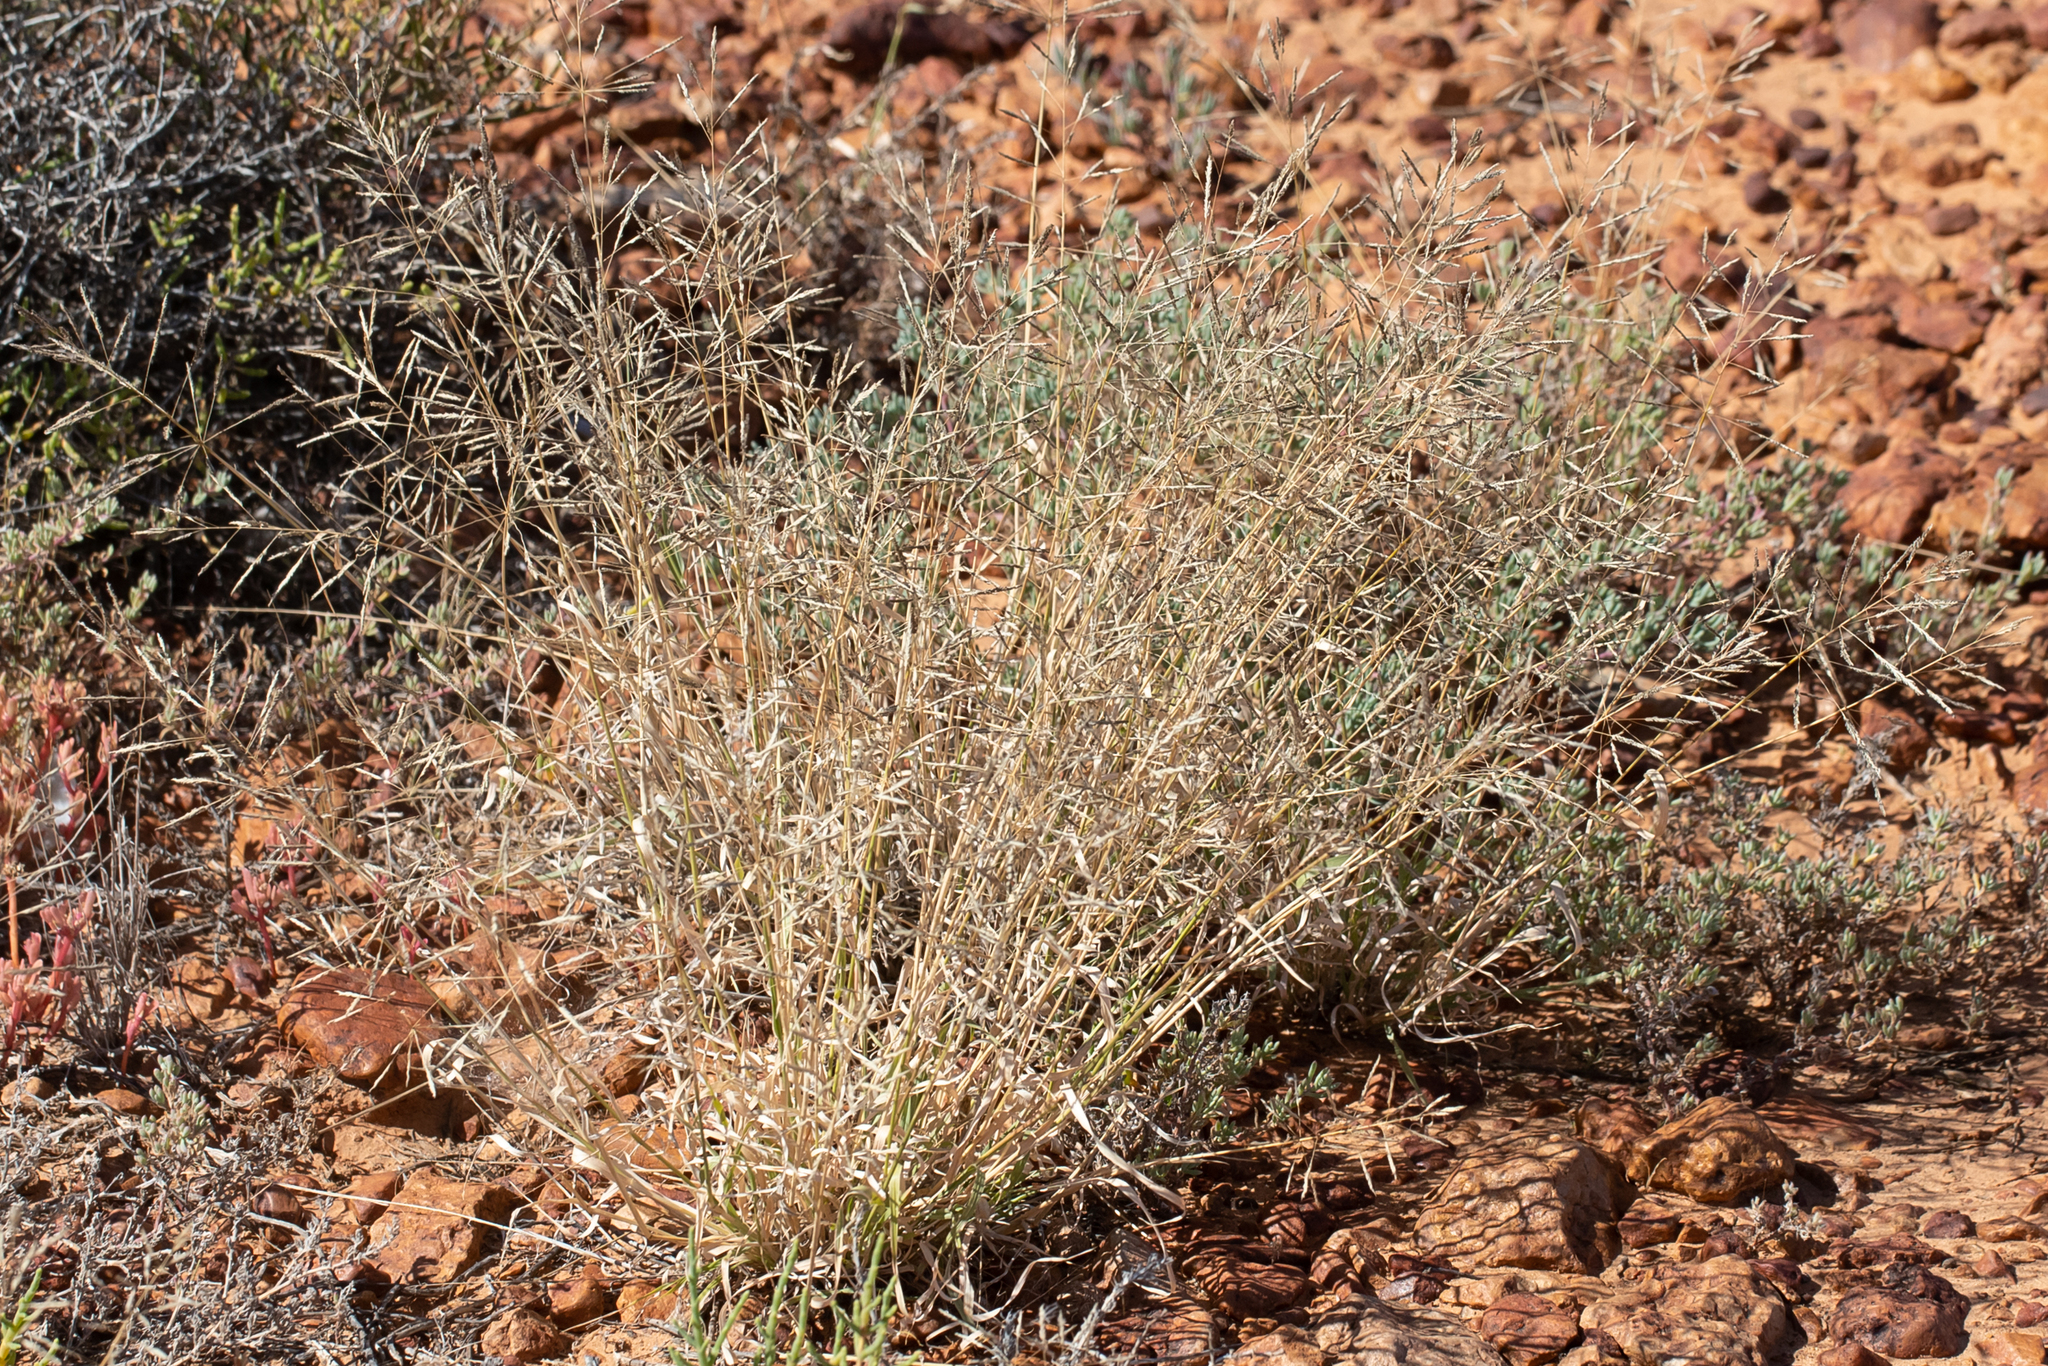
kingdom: Plantae
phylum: Tracheophyta
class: Liliopsida
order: Poales
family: Poaceae
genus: Sporobolus
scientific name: Sporobolus actinocladus
